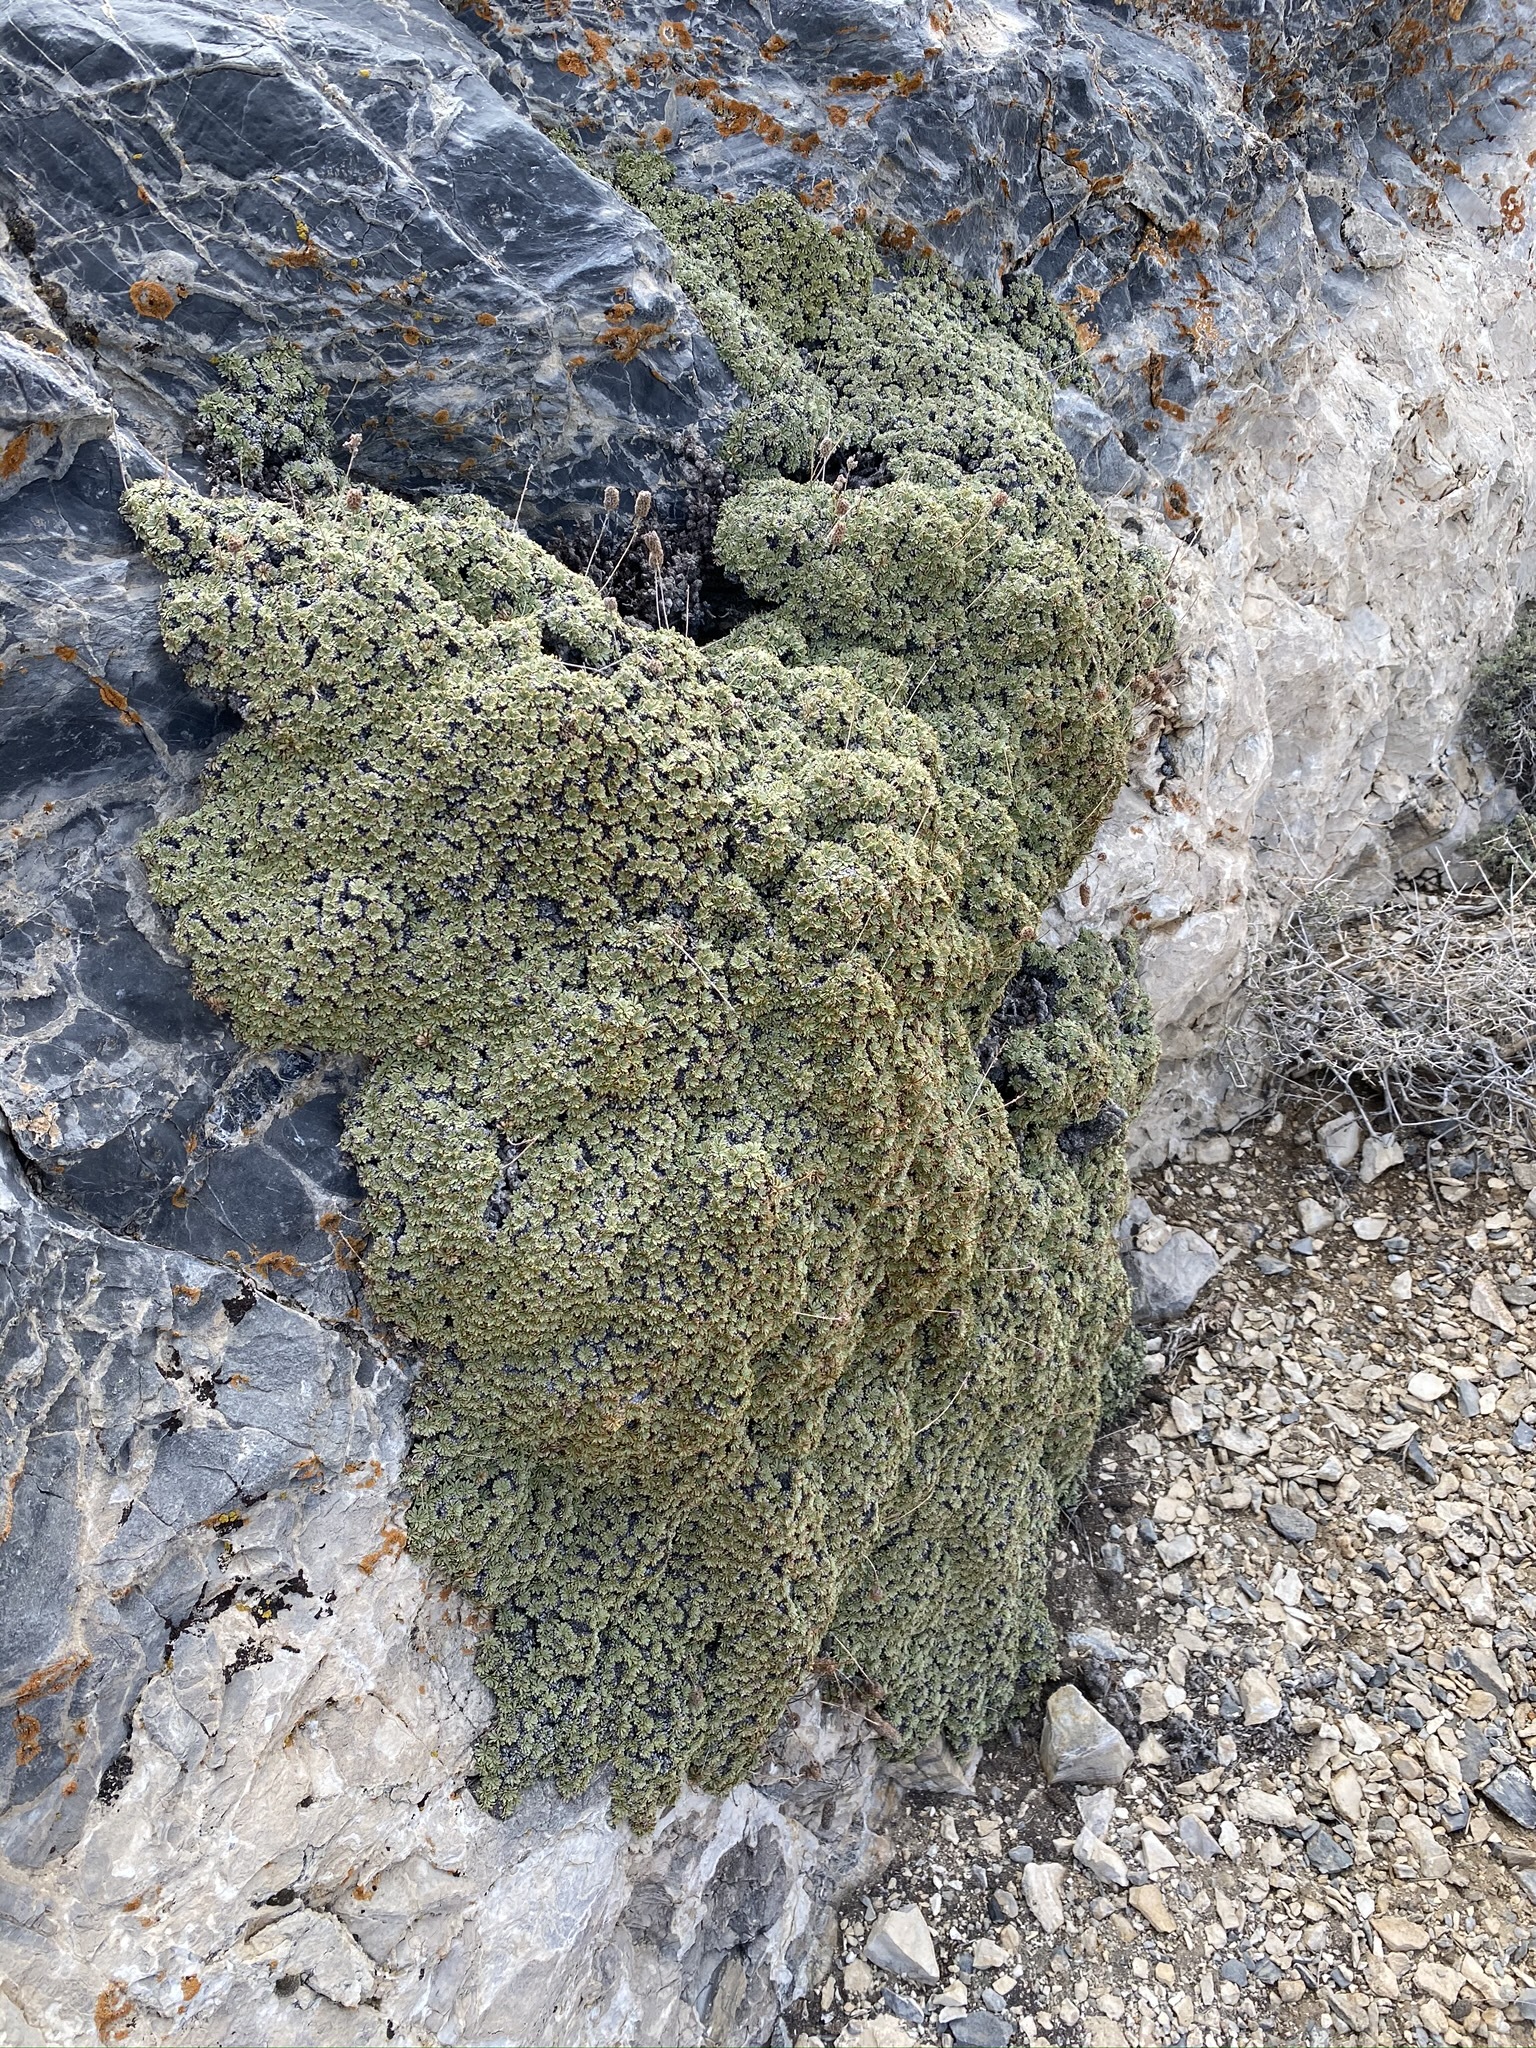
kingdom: Plantae
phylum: Tracheophyta
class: Magnoliopsida
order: Rosales
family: Rosaceae
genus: Petrophytum
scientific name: Petrophytum caespitosum
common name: Mat rockspirea
